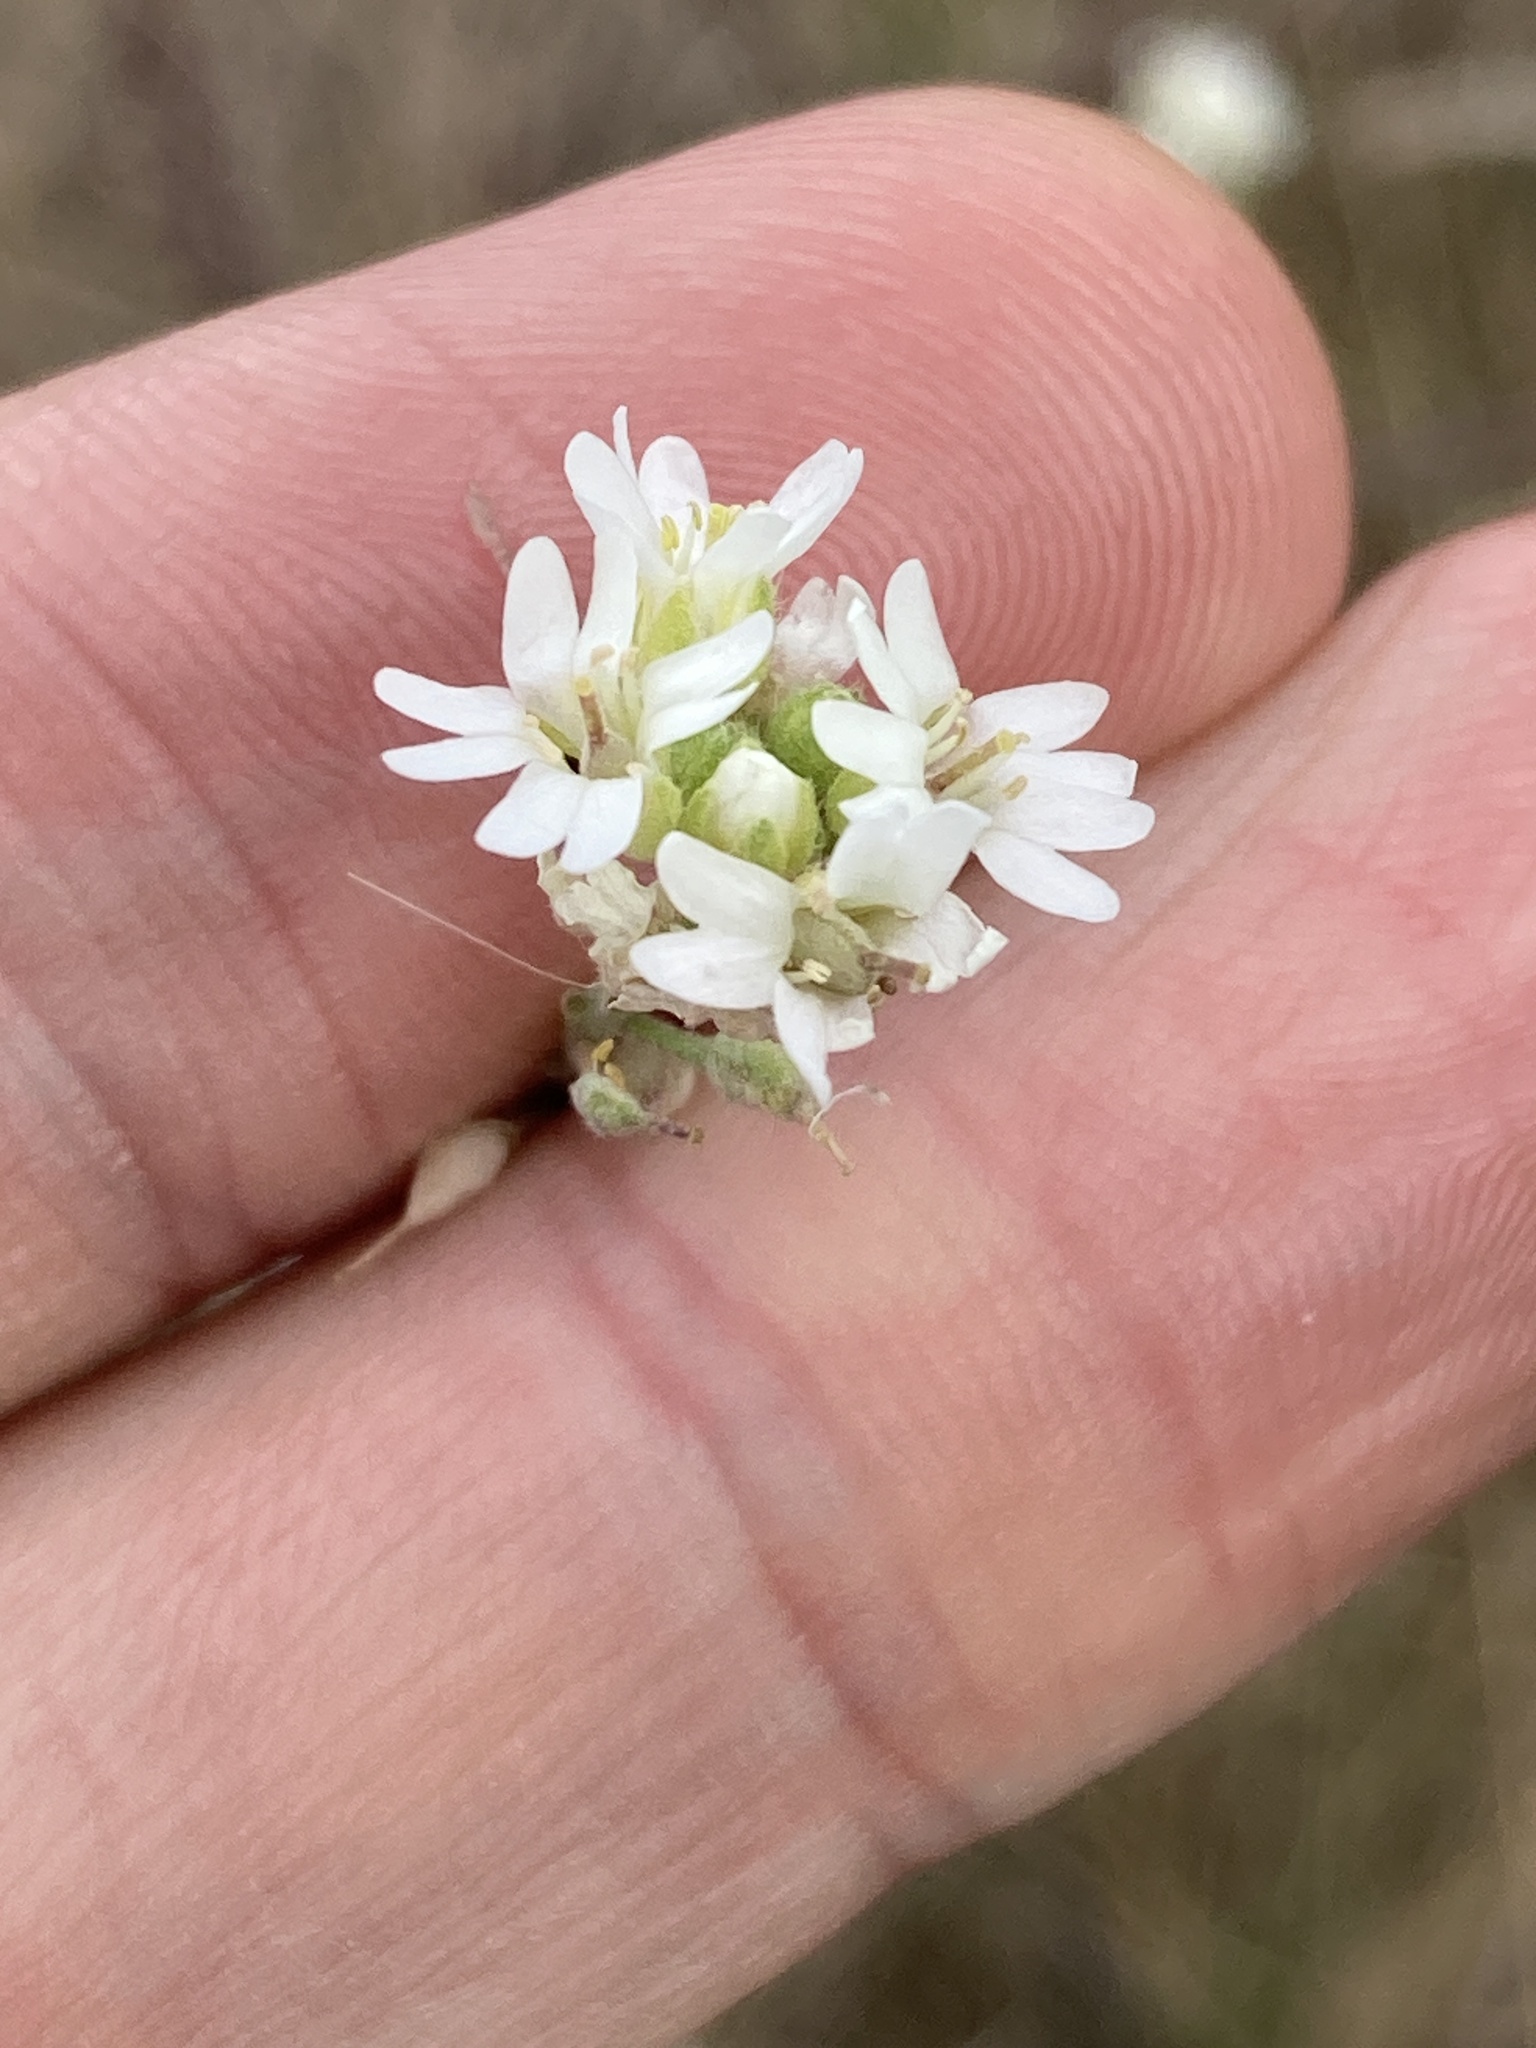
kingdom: Plantae
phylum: Tracheophyta
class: Magnoliopsida
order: Brassicales
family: Brassicaceae
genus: Berteroa
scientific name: Berteroa incana
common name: Hoary alison
